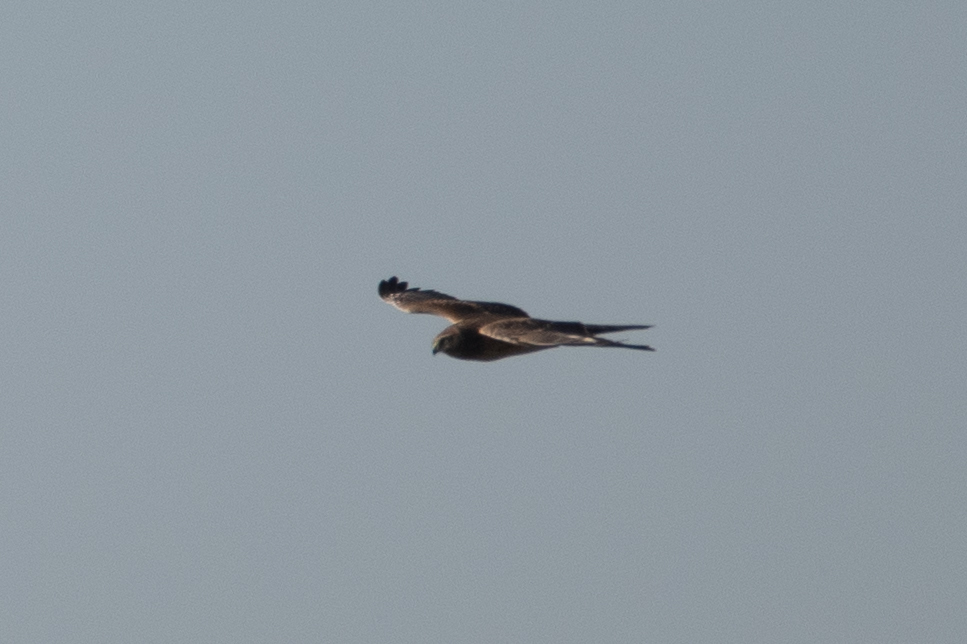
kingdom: Animalia
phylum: Chordata
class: Aves
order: Accipitriformes
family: Accipitridae
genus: Circus
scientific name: Circus cyaneus
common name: Hen harrier
